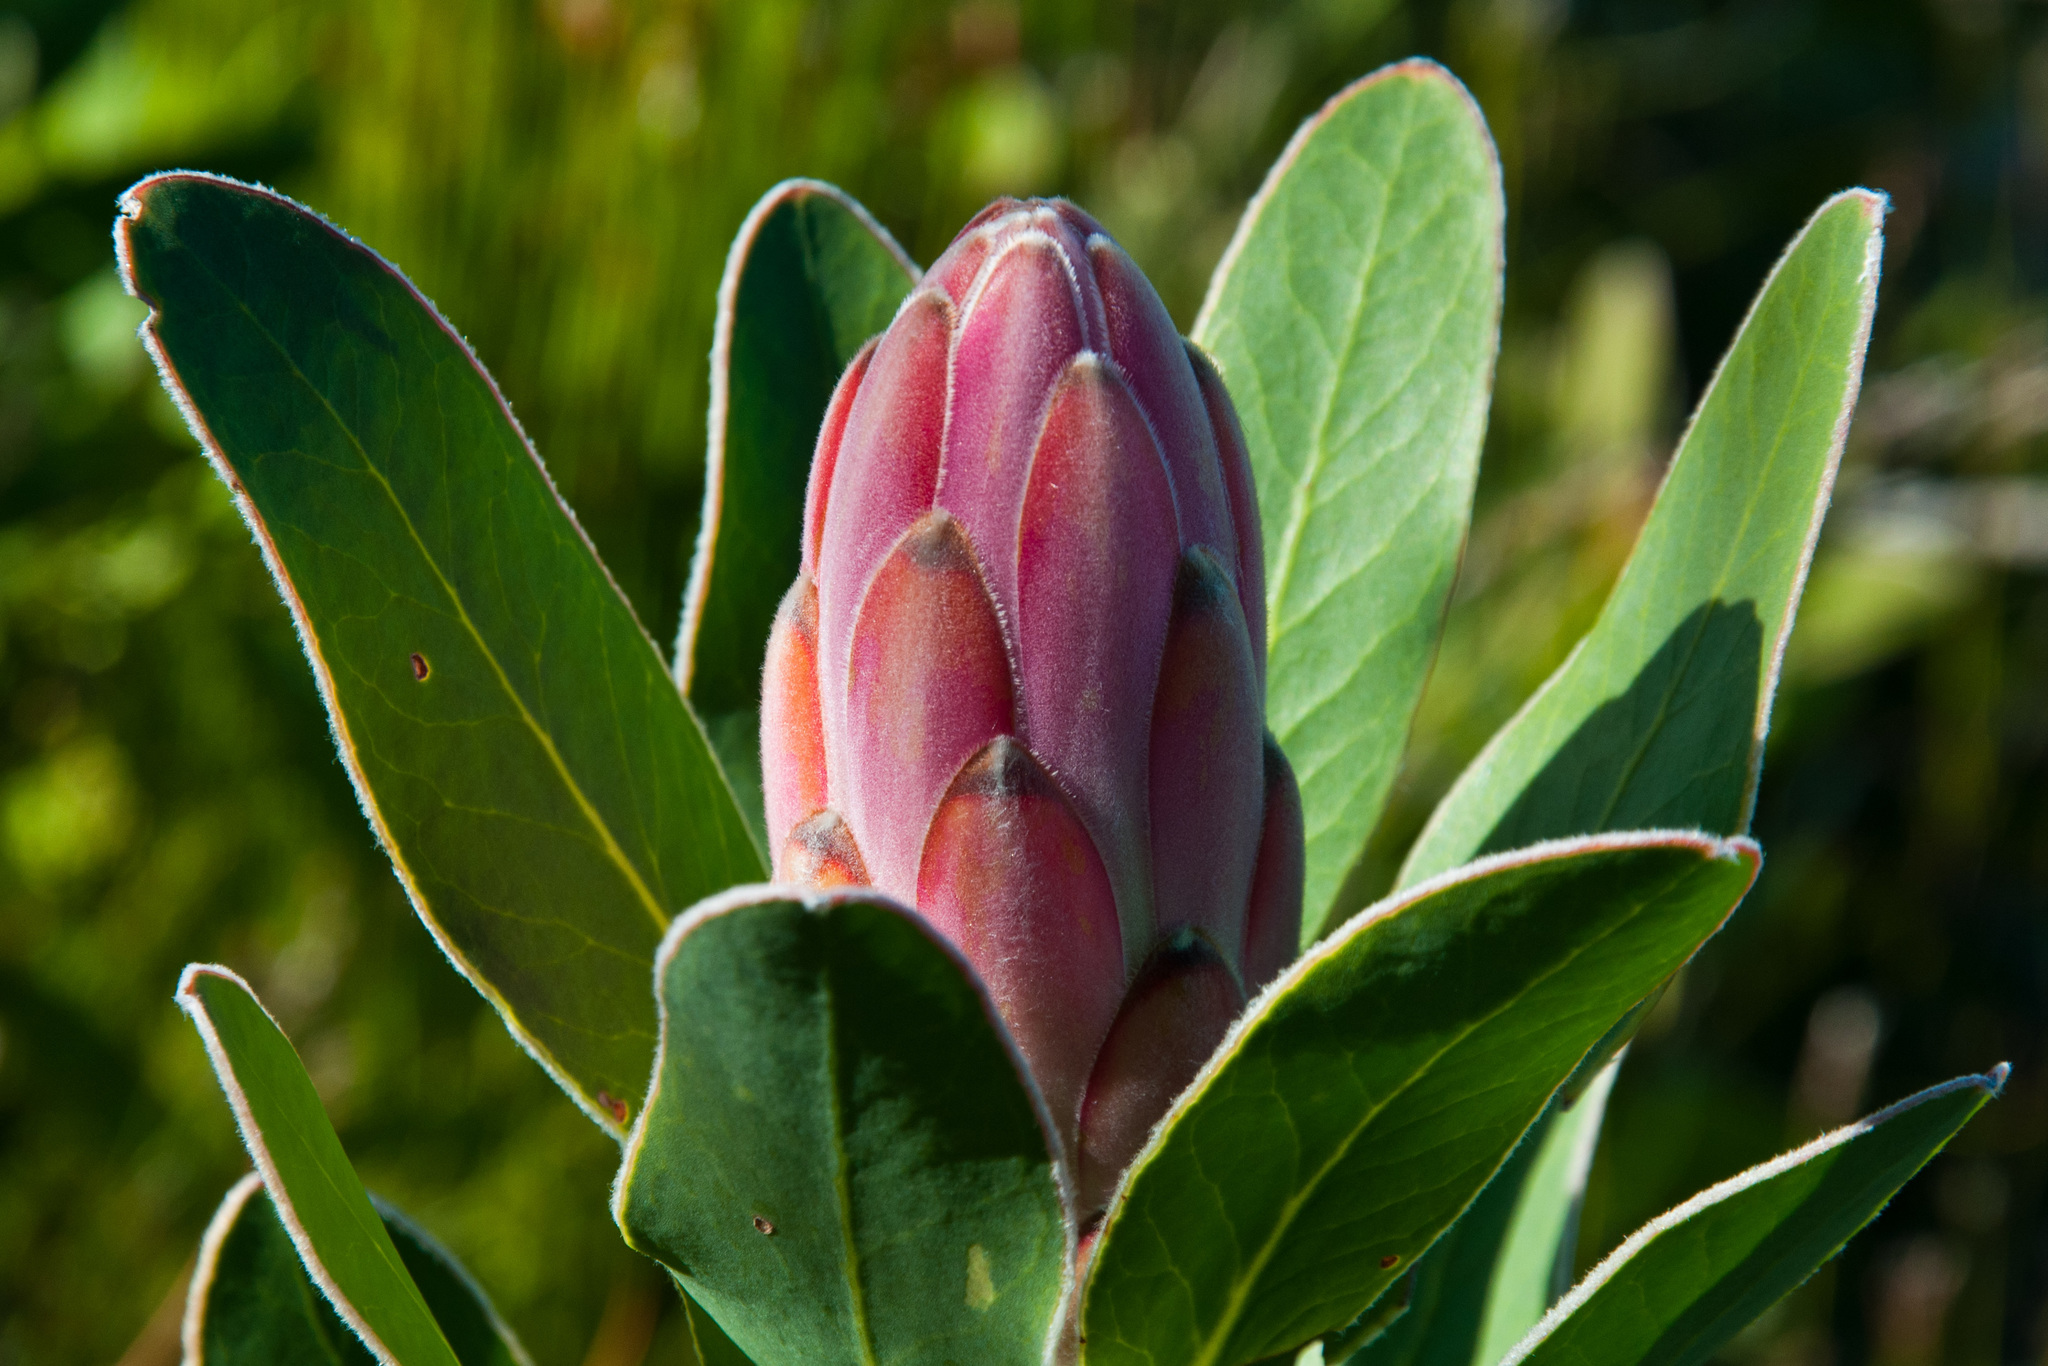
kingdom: Plantae
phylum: Tracheophyta
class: Magnoliopsida
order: Proteales
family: Proteaceae
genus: Protea
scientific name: Protea compacta
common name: Bot river protea
